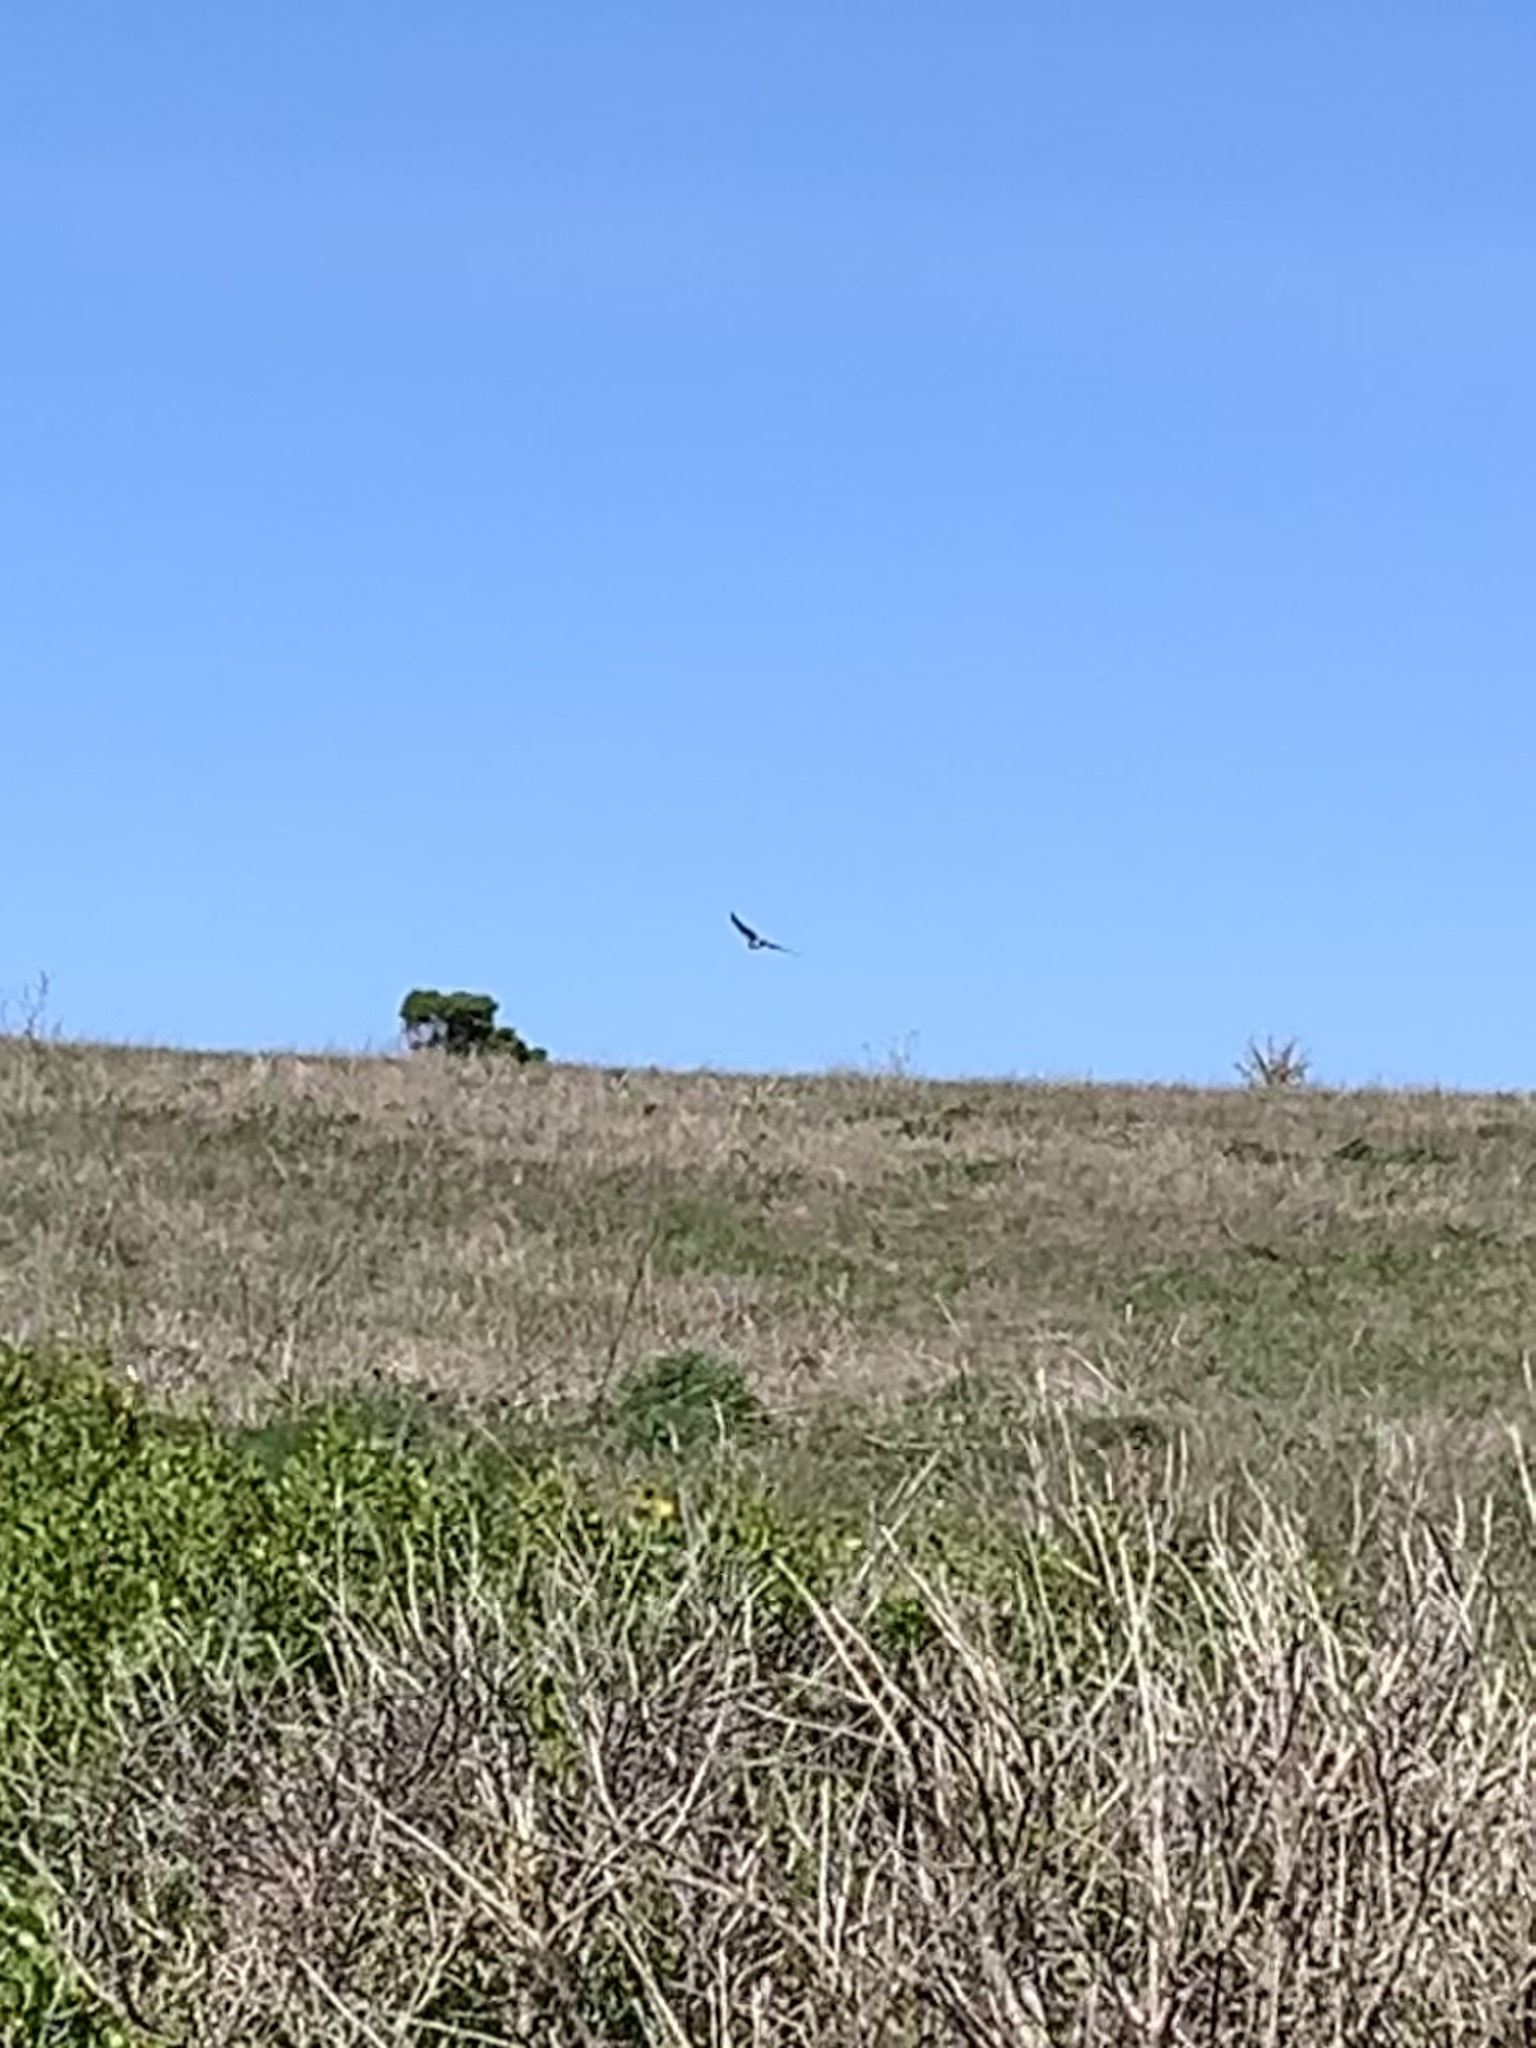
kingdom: Animalia
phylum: Chordata
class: Aves
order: Accipitriformes
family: Accipitridae
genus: Circus
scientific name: Circus cyaneus
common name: Hen harrier
